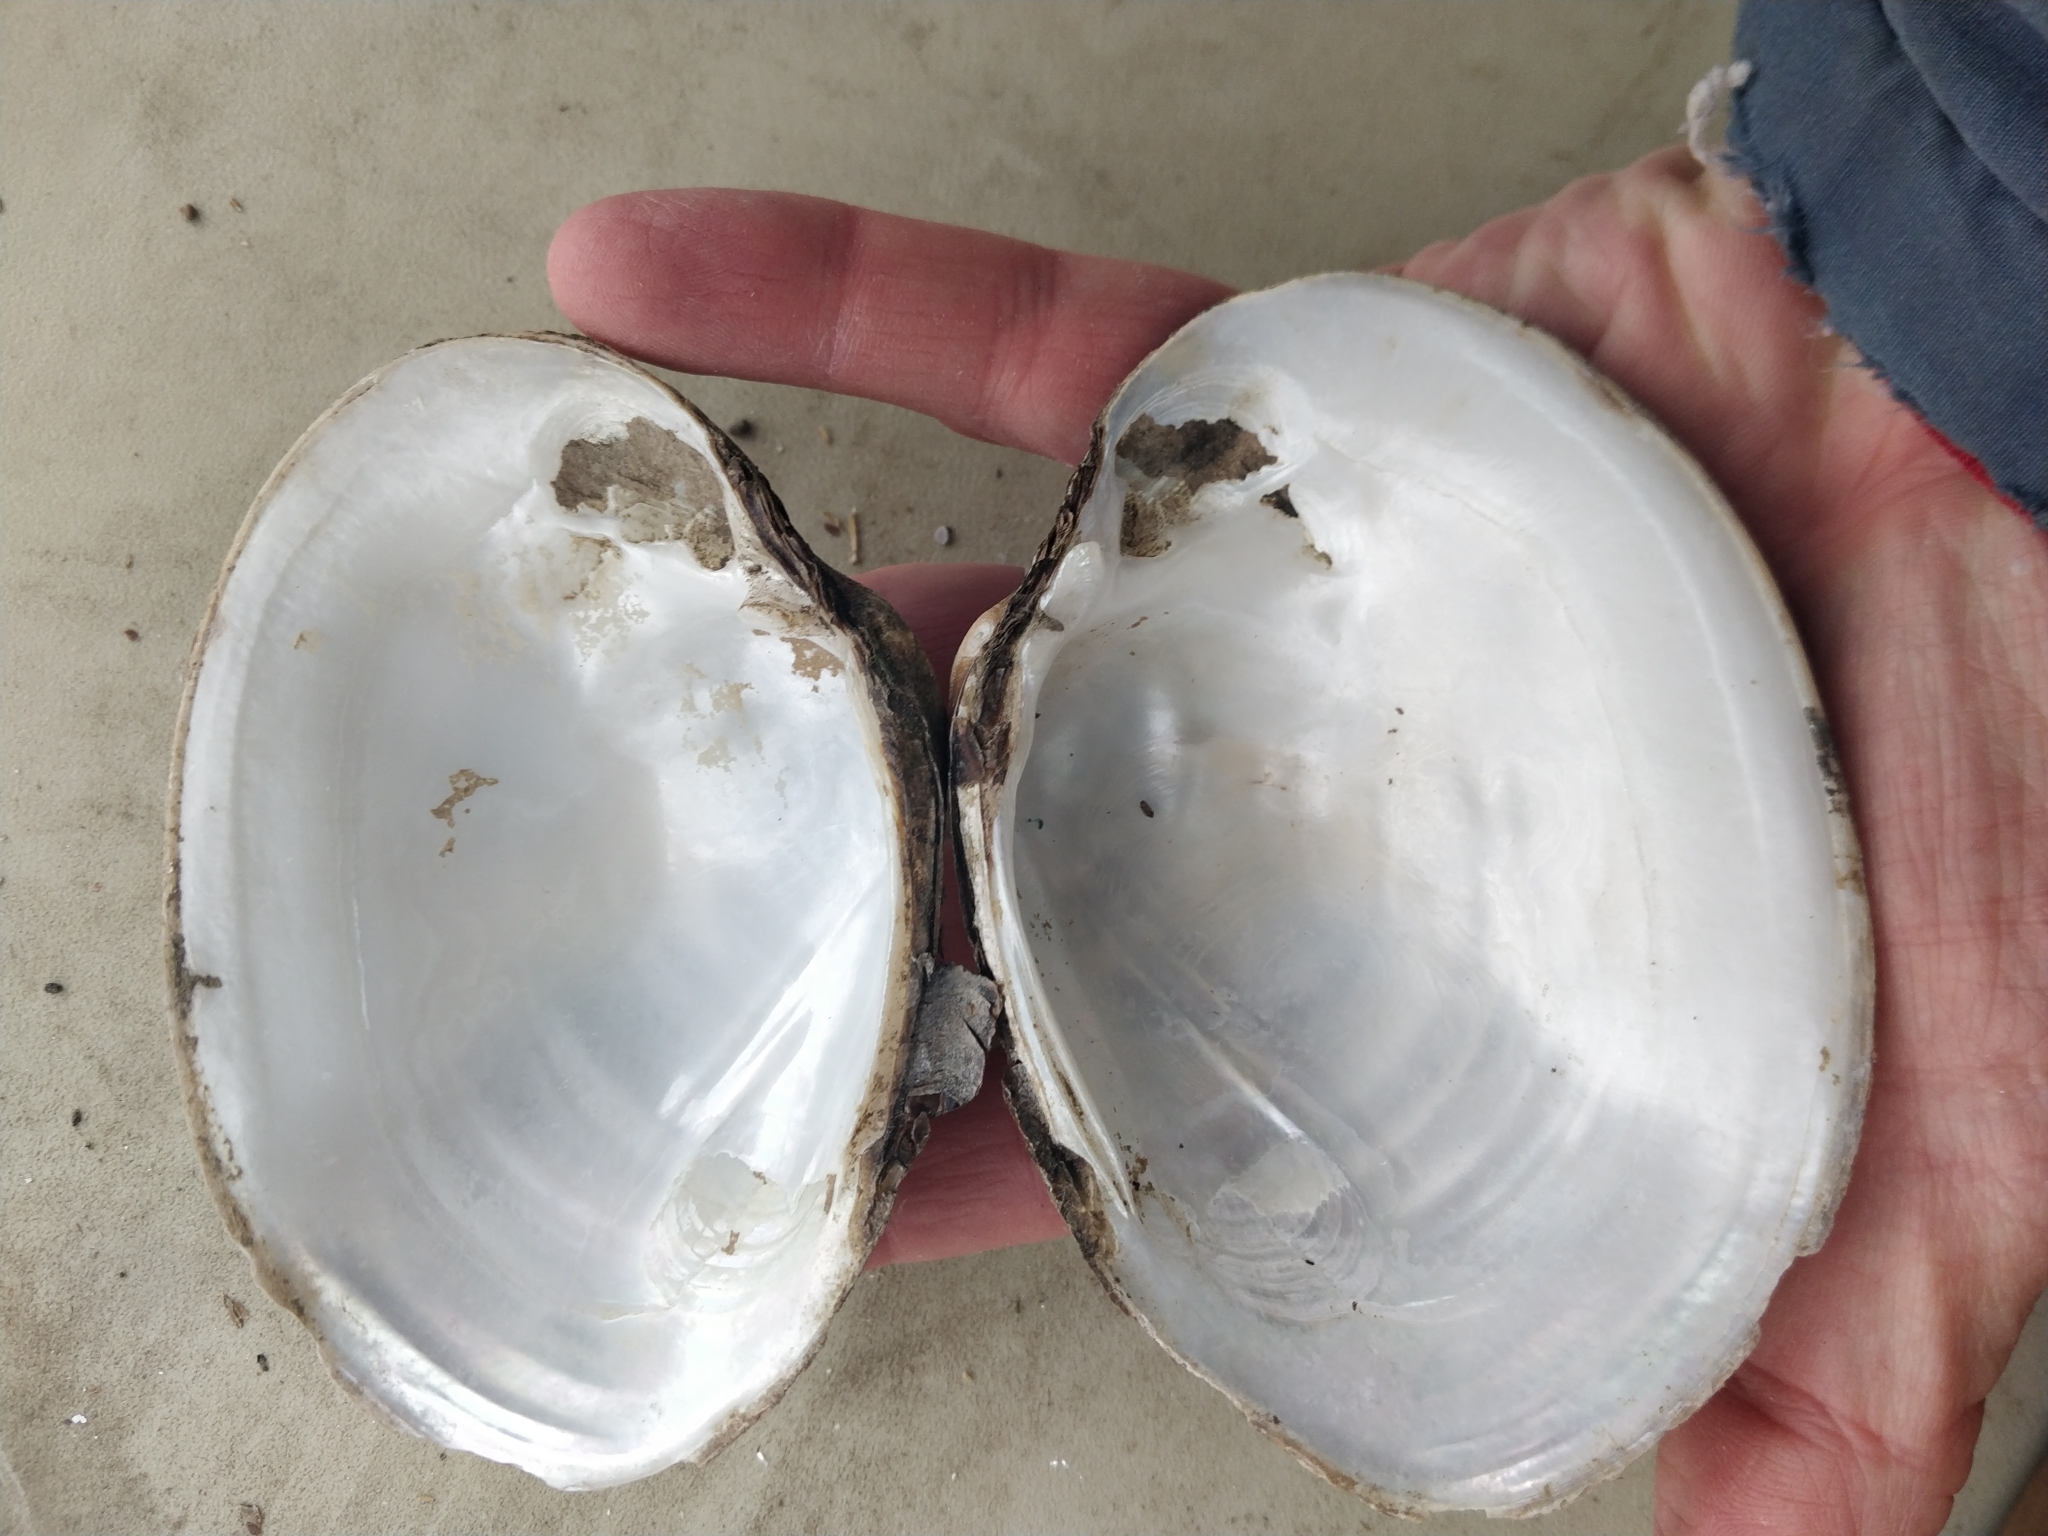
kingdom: Animalia
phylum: Mollusca
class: Bivalvia
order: Unionida
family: Unionidae
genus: Lampsilis
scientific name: Lampsilis cardium
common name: Plain pocketbook
